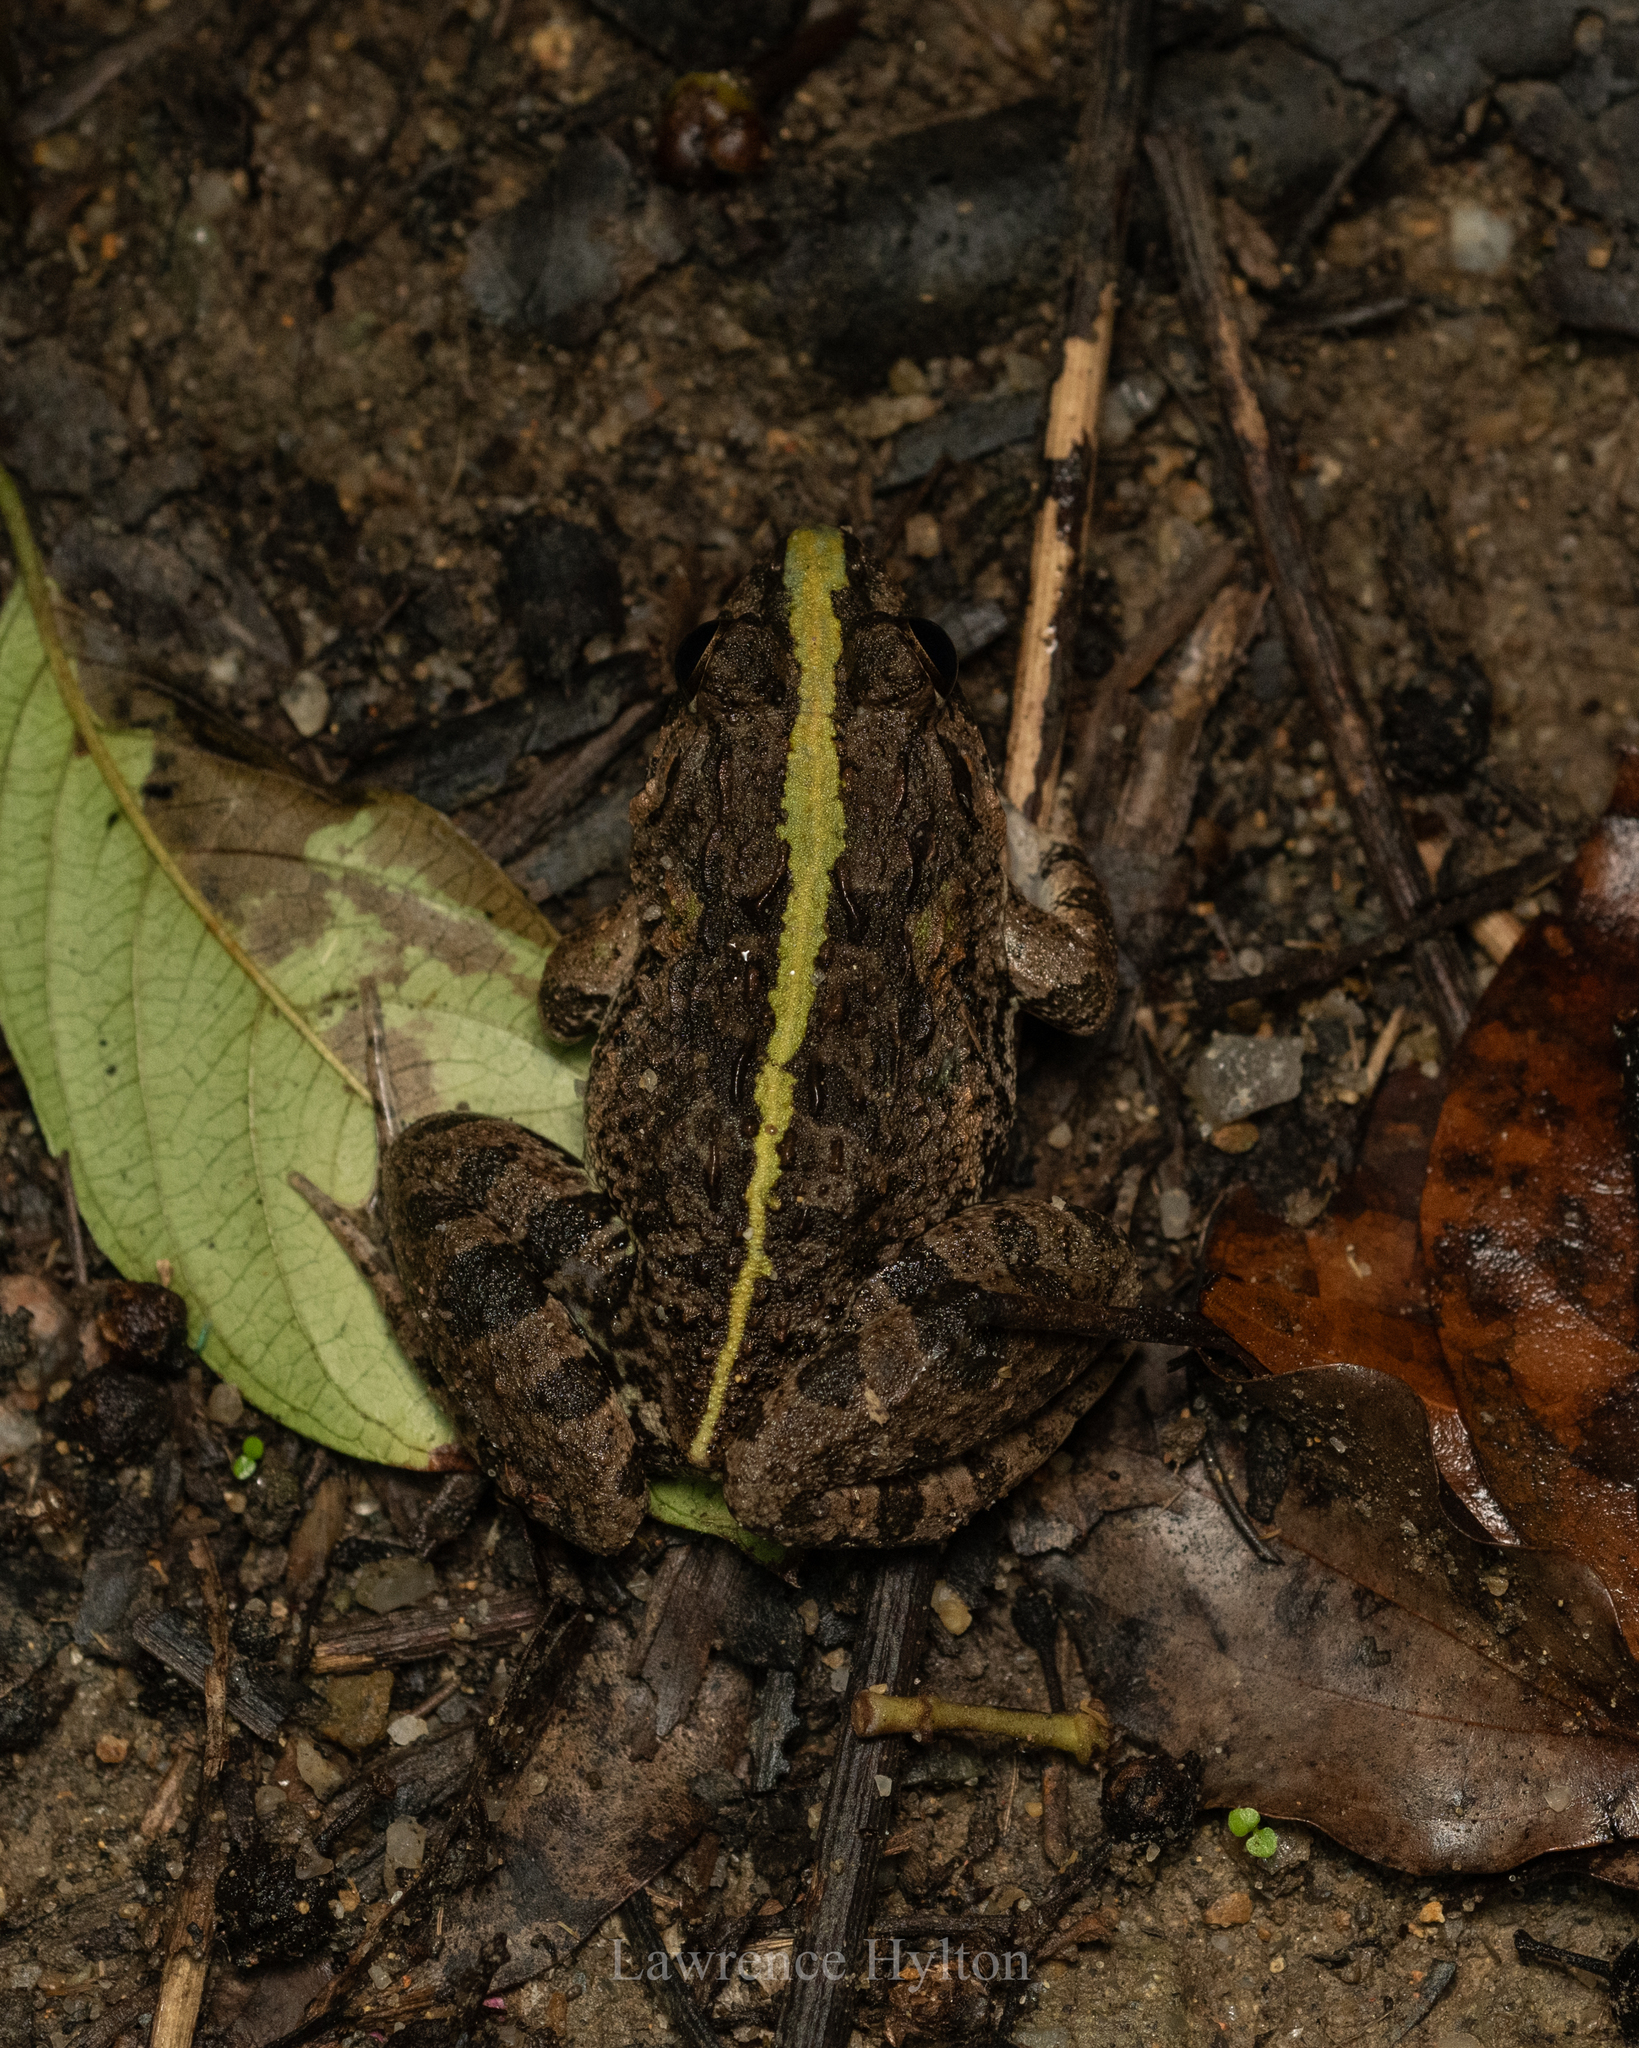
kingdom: Animalia
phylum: Chordata
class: Amphibia
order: Anura
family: Dicroglossidae
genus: Fejervarya
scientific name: Fejervarya multistriata
